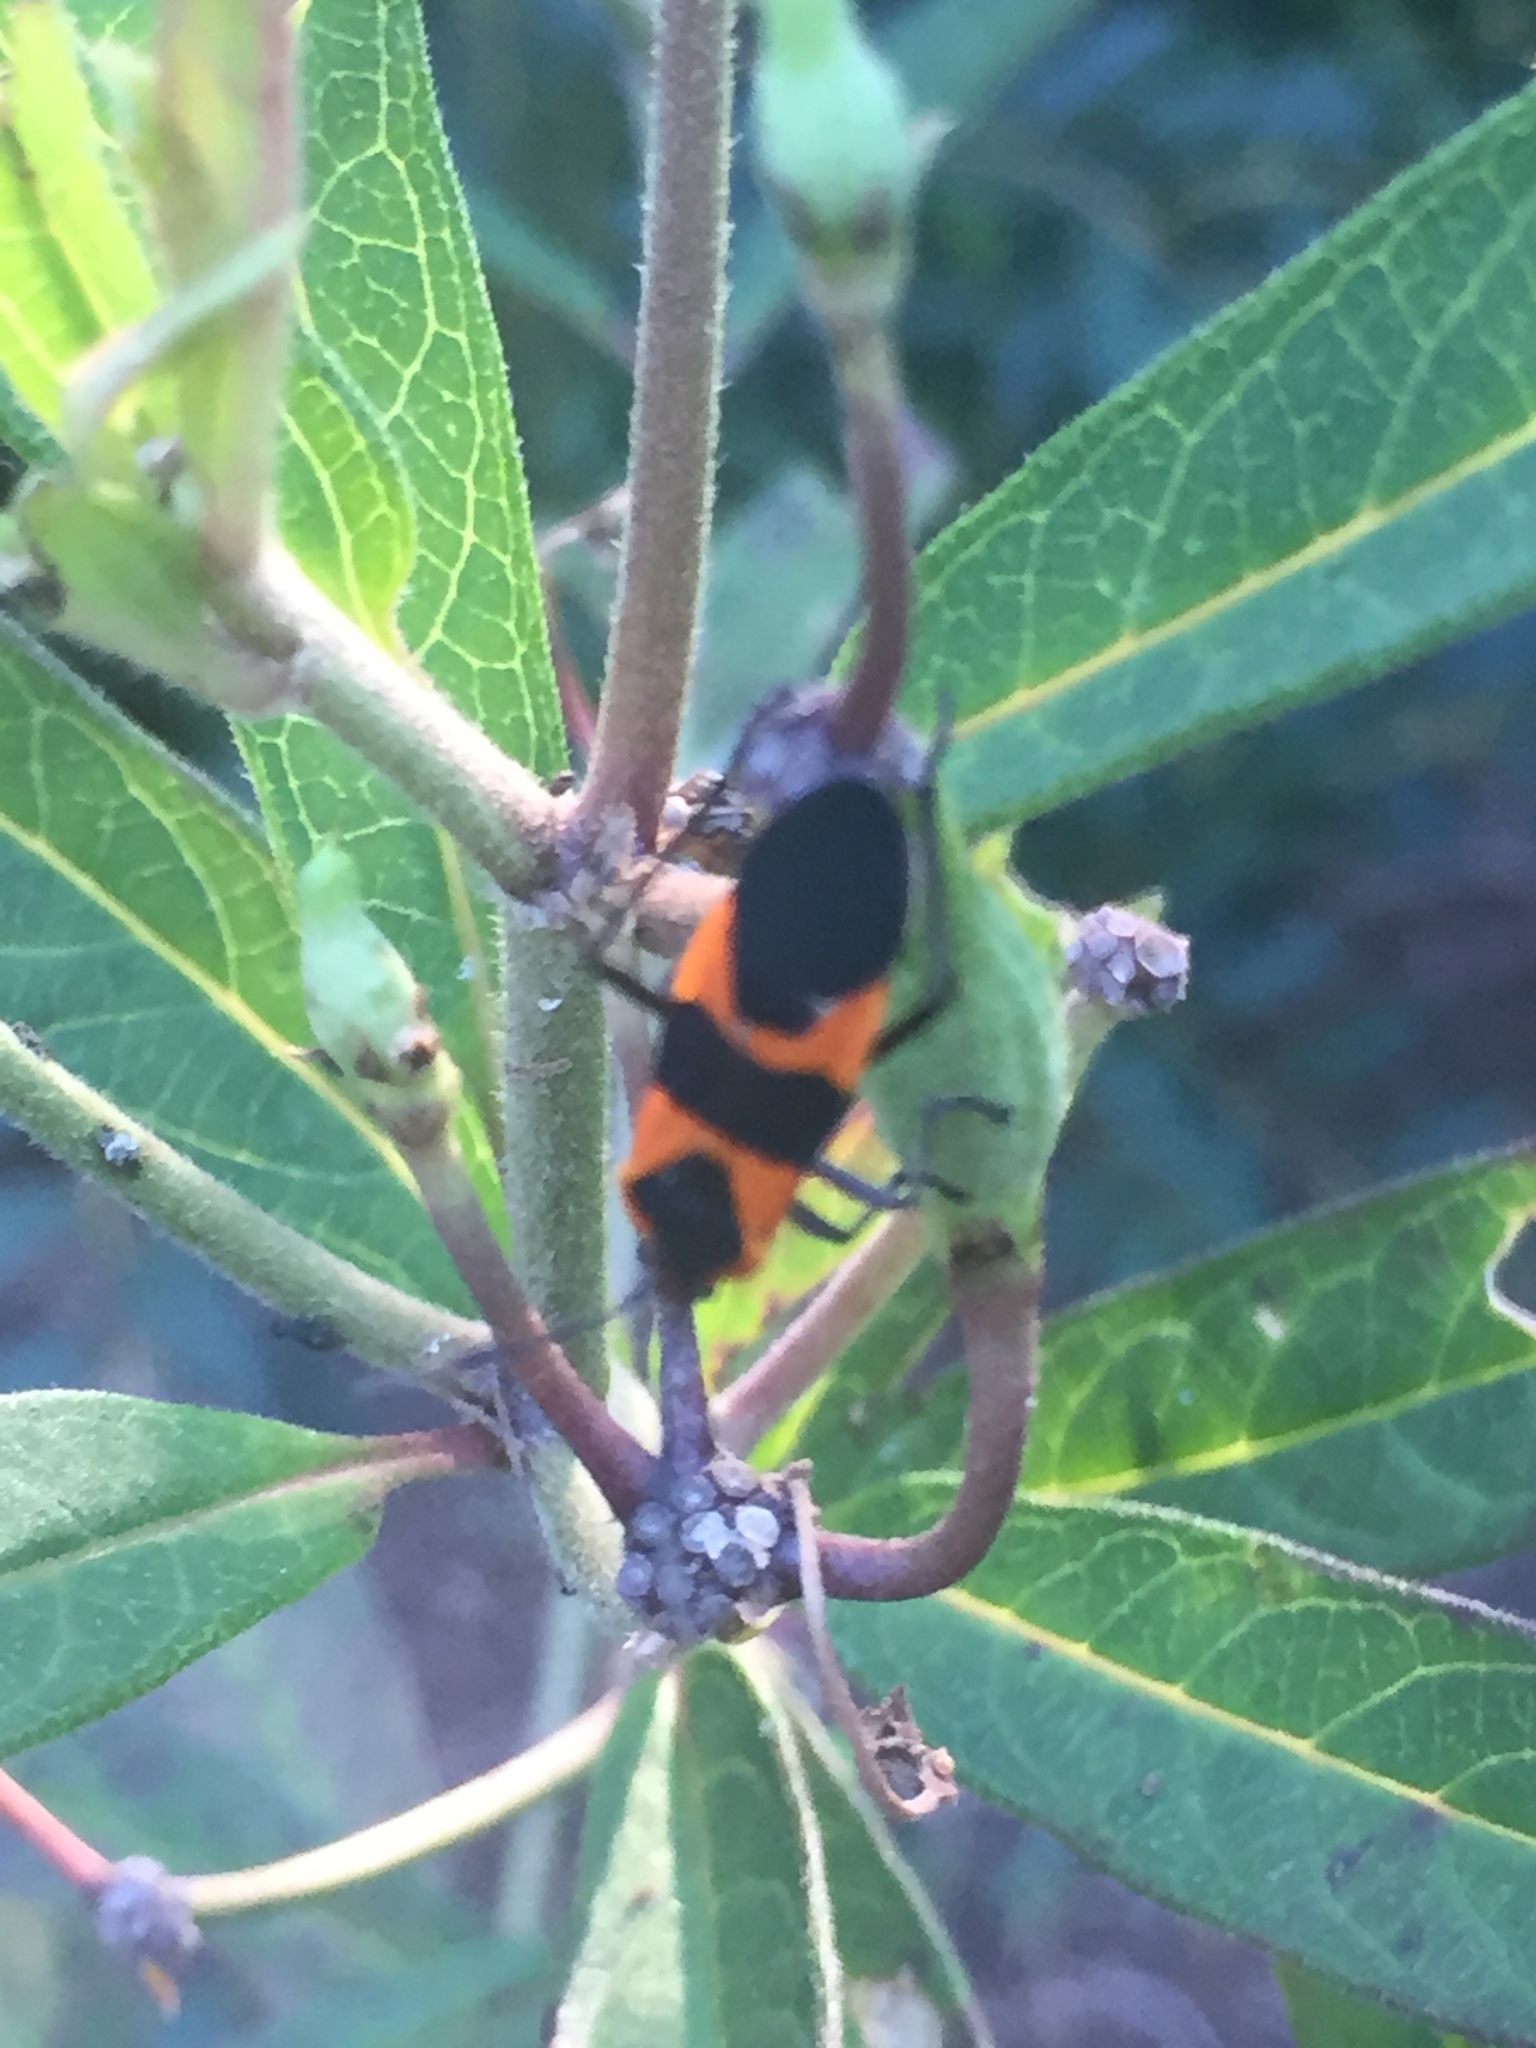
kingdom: Animalia
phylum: Arthropoda
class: Insecta
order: Hemiptera
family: Lygaeidae
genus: Oncopeltus
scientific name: Oncopeltus fasciatus
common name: Large milkweed bug
